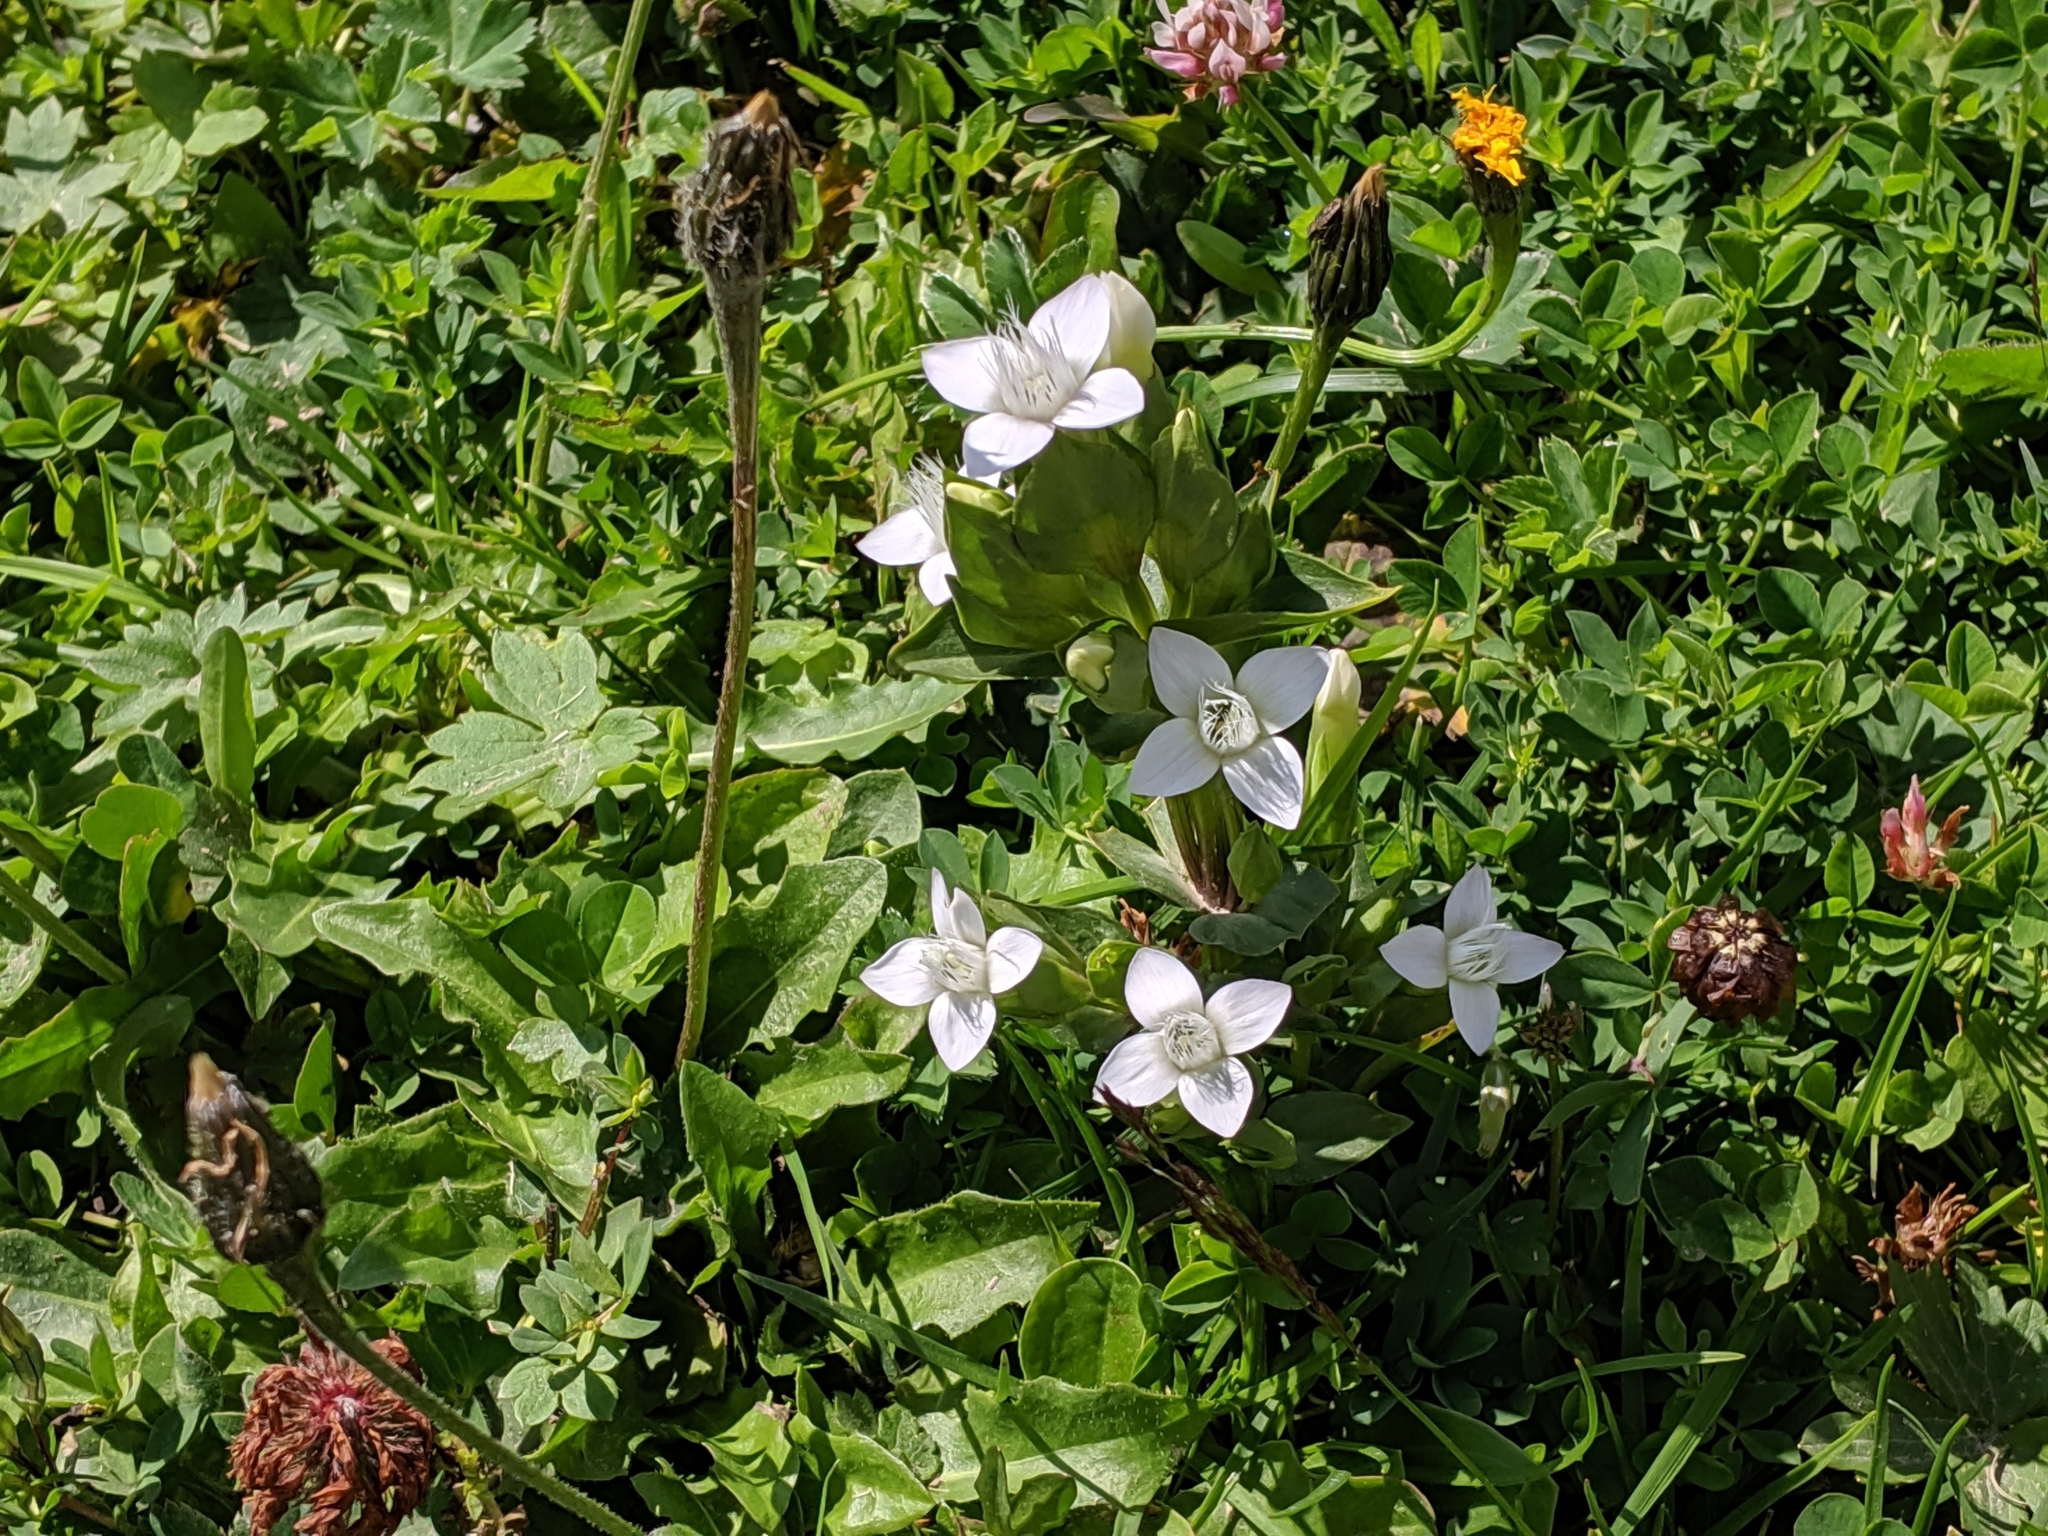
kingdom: Plantae
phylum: Tracheophyta
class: Magnoliopsida
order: Gentianales
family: Gentianaceae
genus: Gentianella
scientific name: Gentianella campestris
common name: Field gentian
